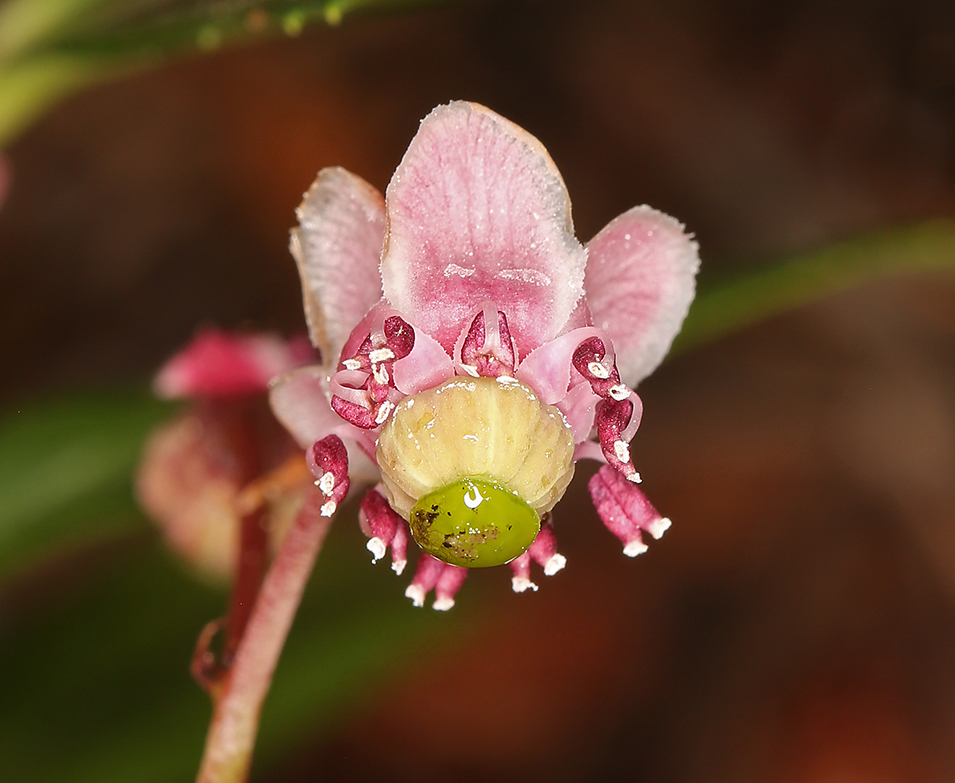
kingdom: Plantae
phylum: Tracheophyta
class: Magnoliopsida
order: Ericales
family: Ericaceae
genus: Chimaphila
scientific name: Chimaphila umbellata
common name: Pipsissewa
